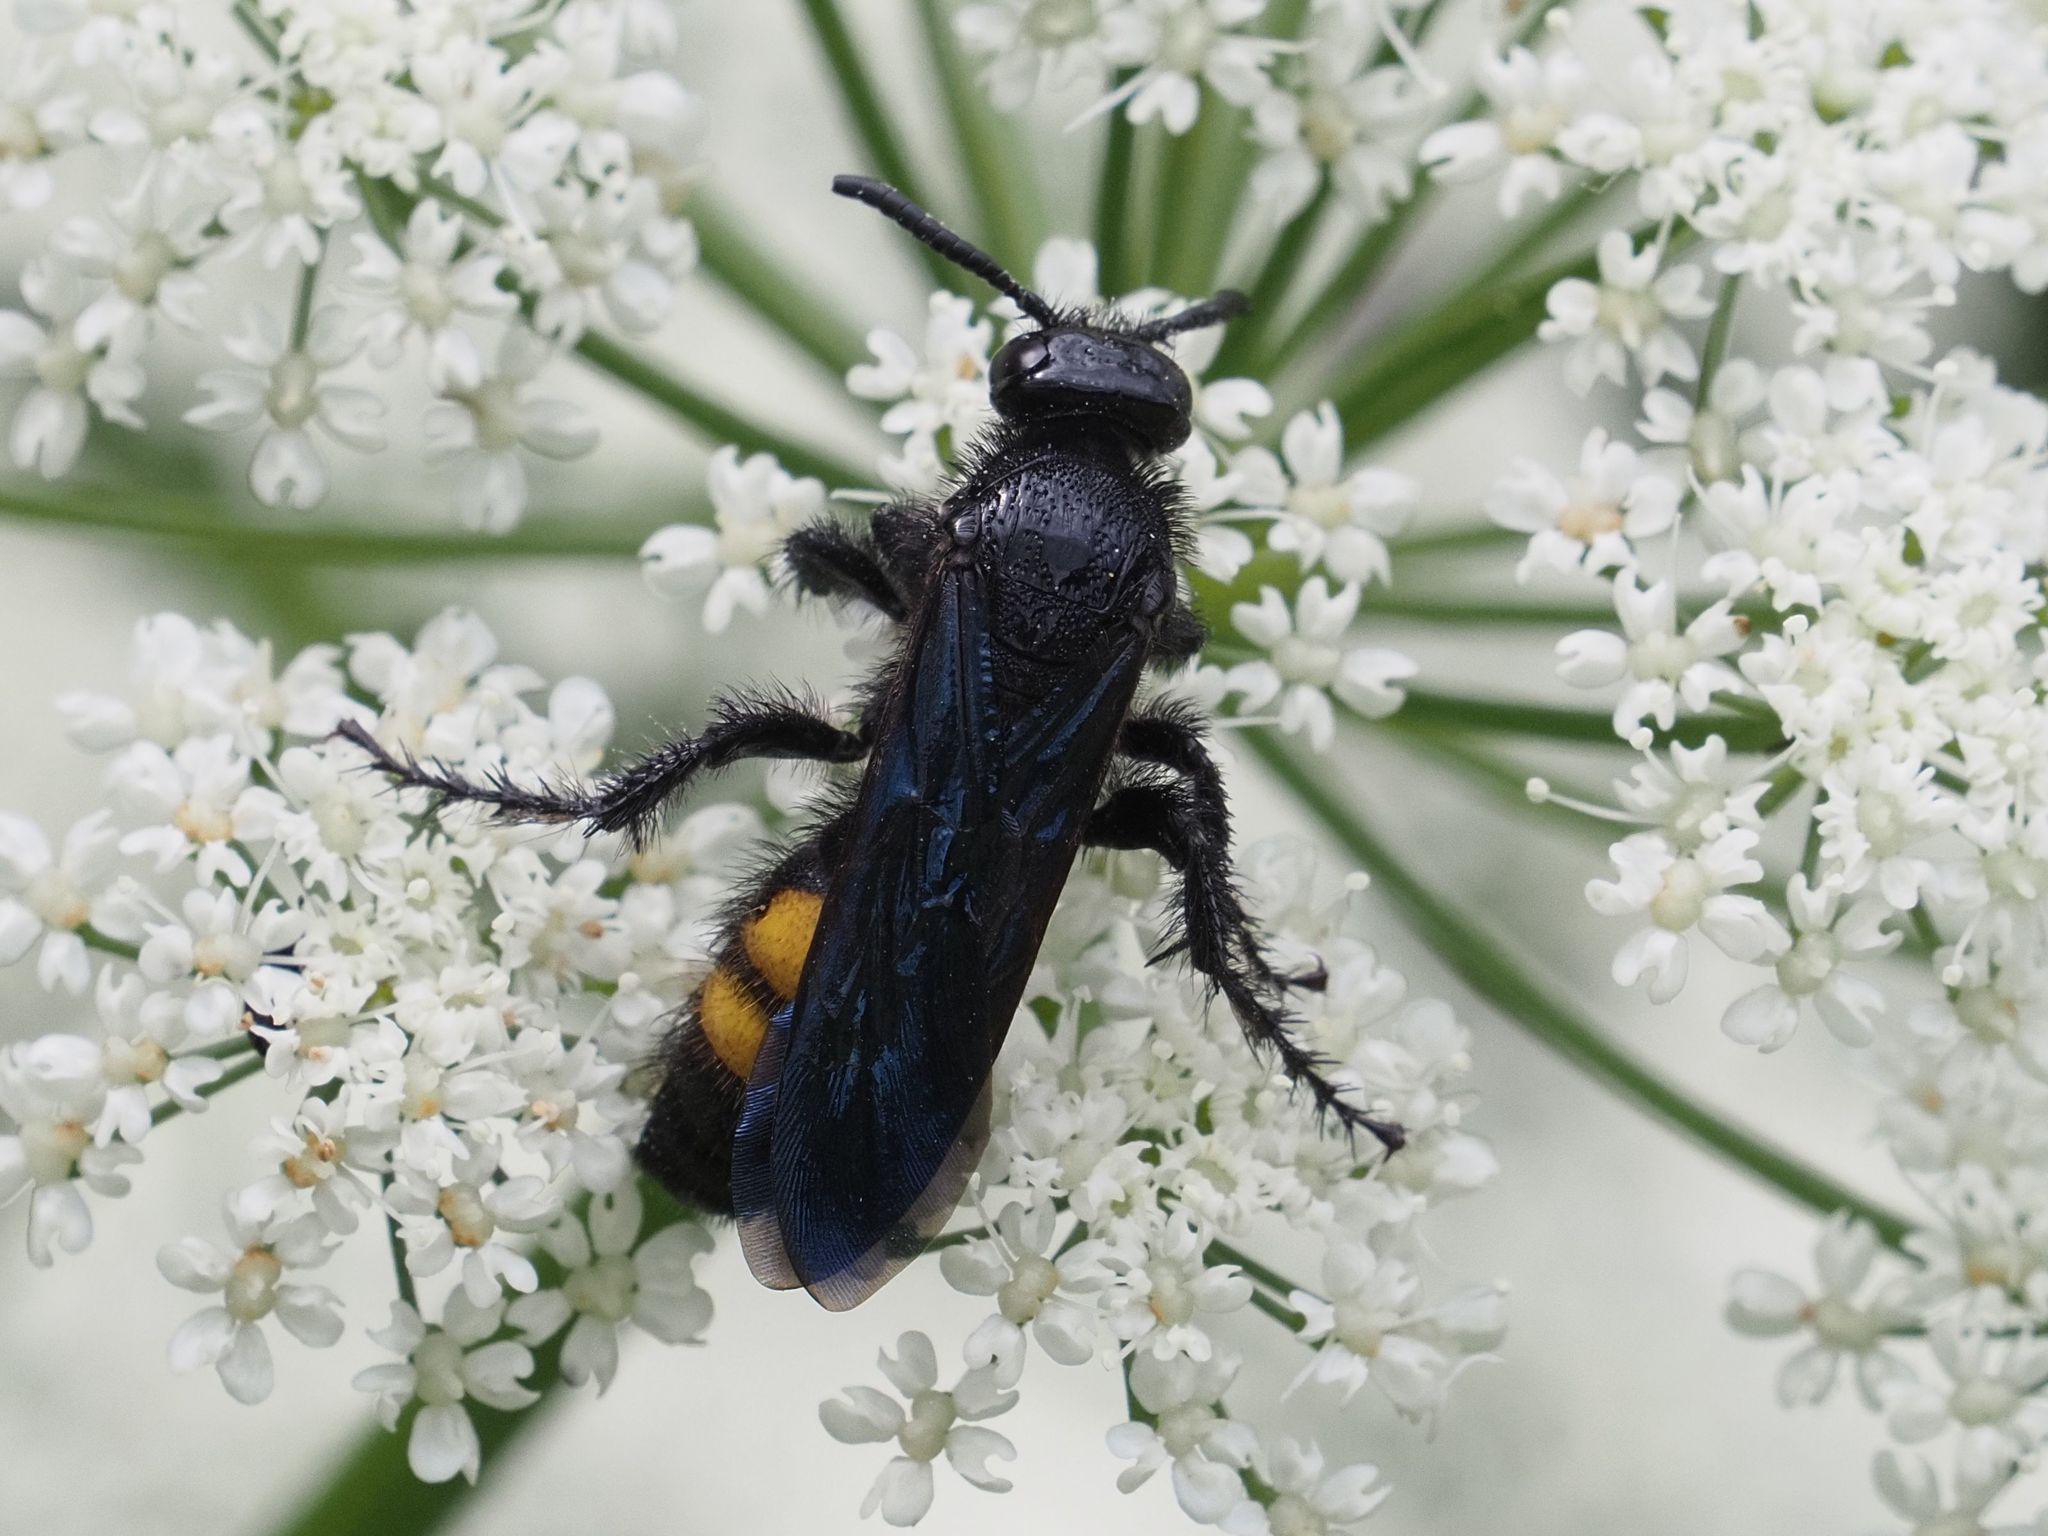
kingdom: Animalia
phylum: Arthropoda
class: Insecta
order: Hymenoptera
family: Scoliidae
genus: Scolia
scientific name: Scolia hirta
